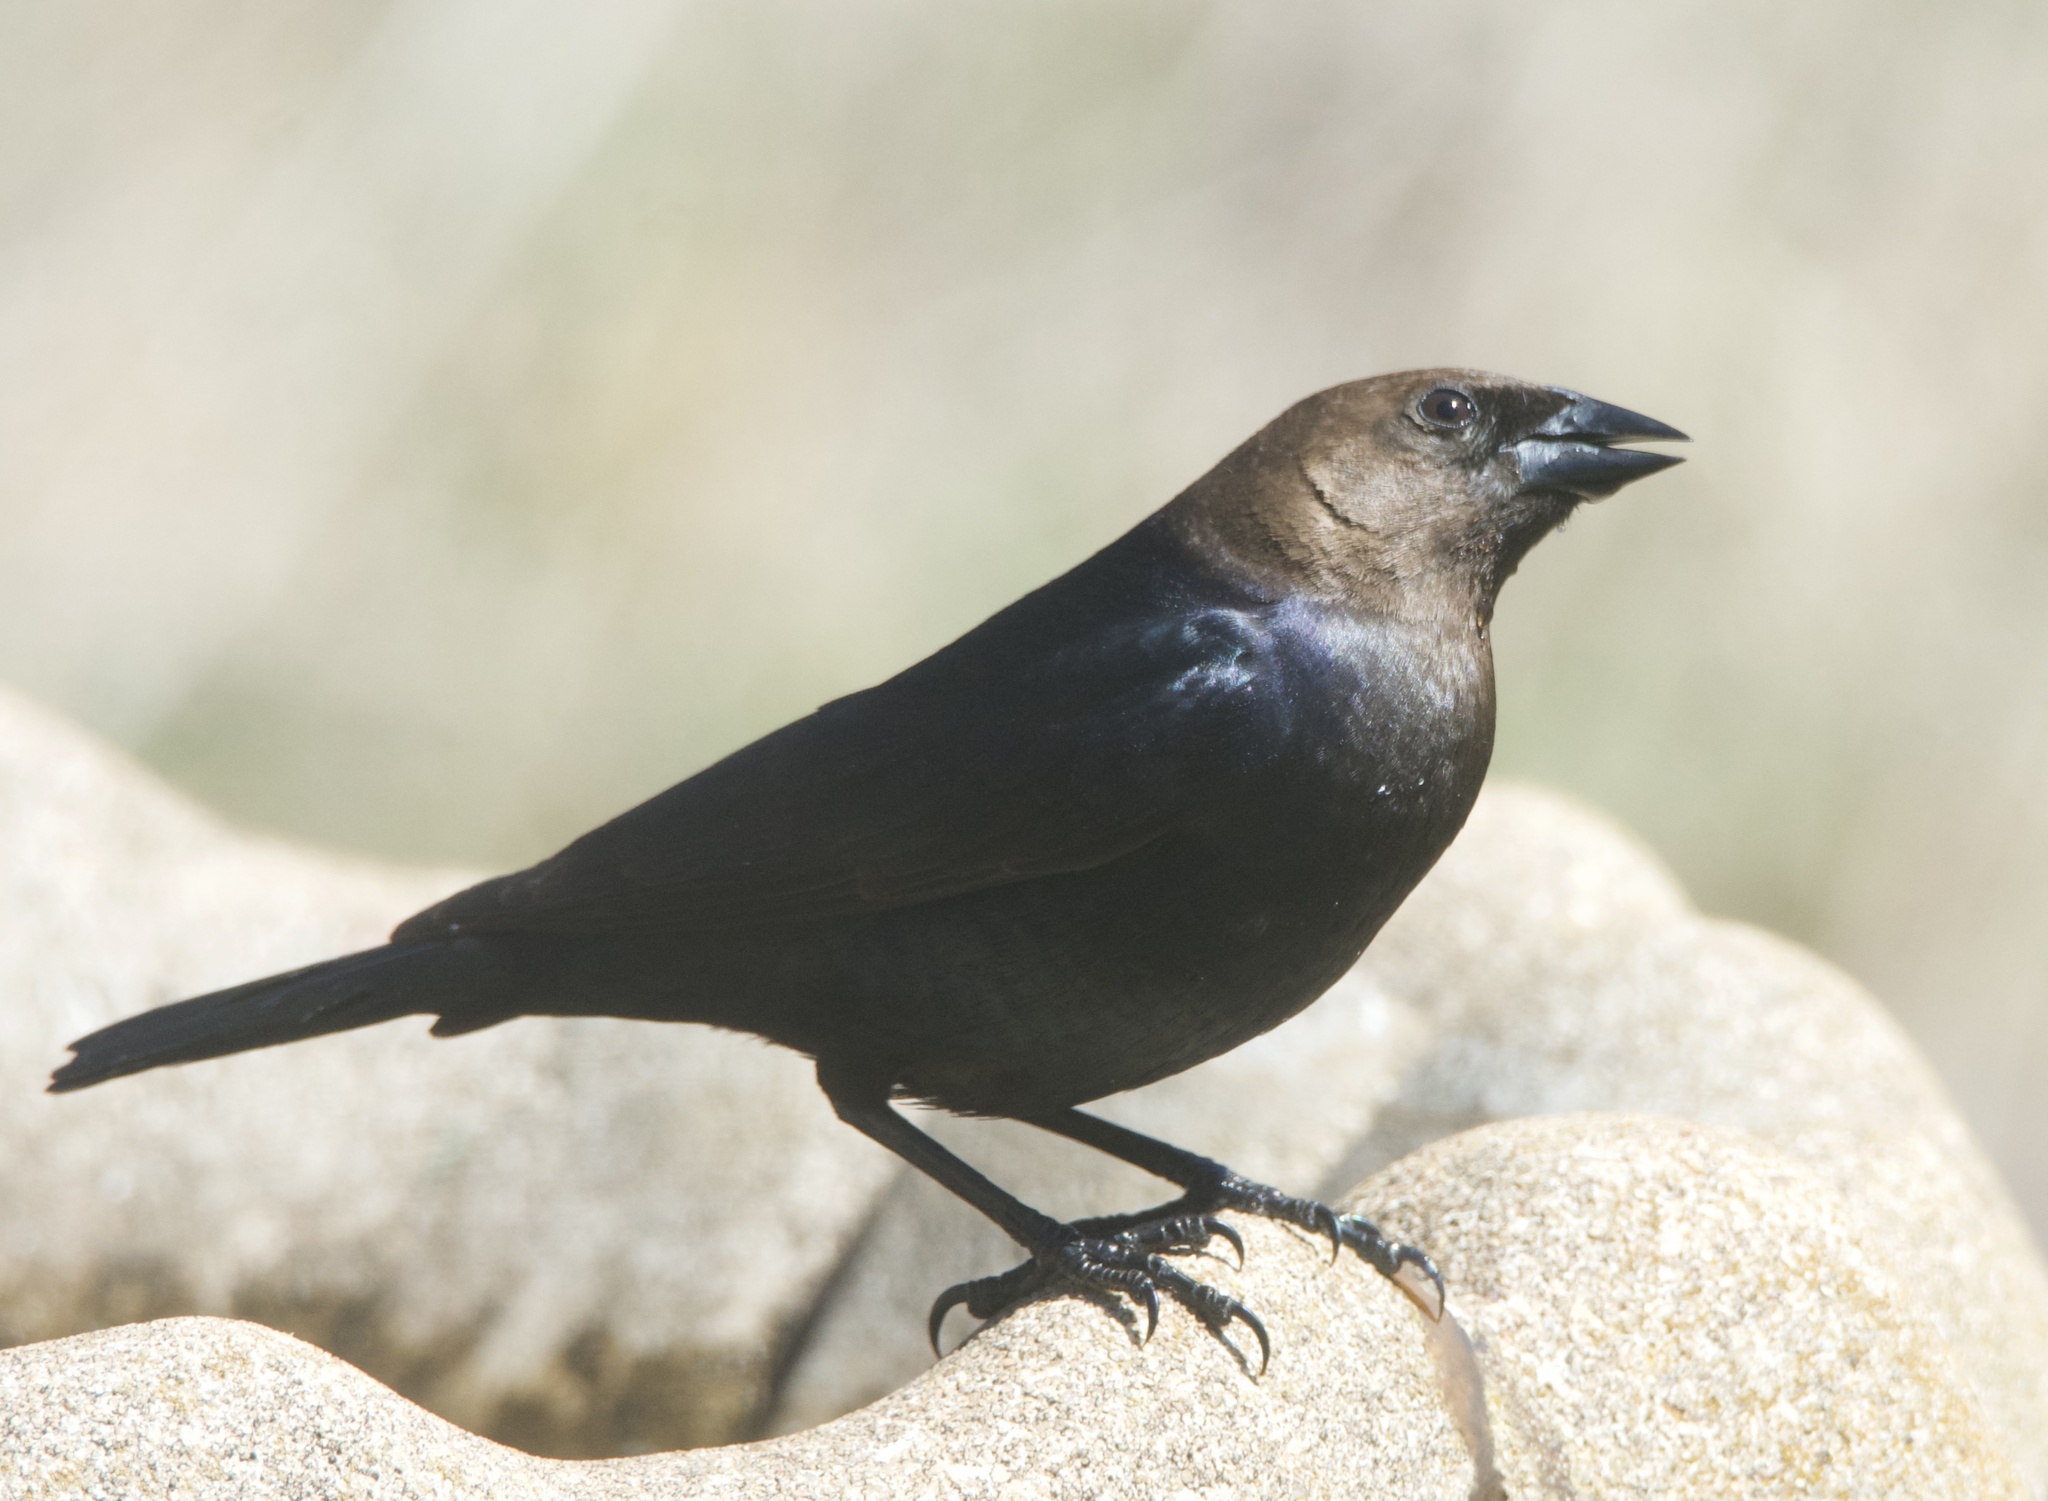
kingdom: Animalia
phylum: Chordata
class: Aves
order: Passeriformes
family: Icteridae
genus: Molothrus
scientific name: Molothrus ater
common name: Brown-headed cowbird
